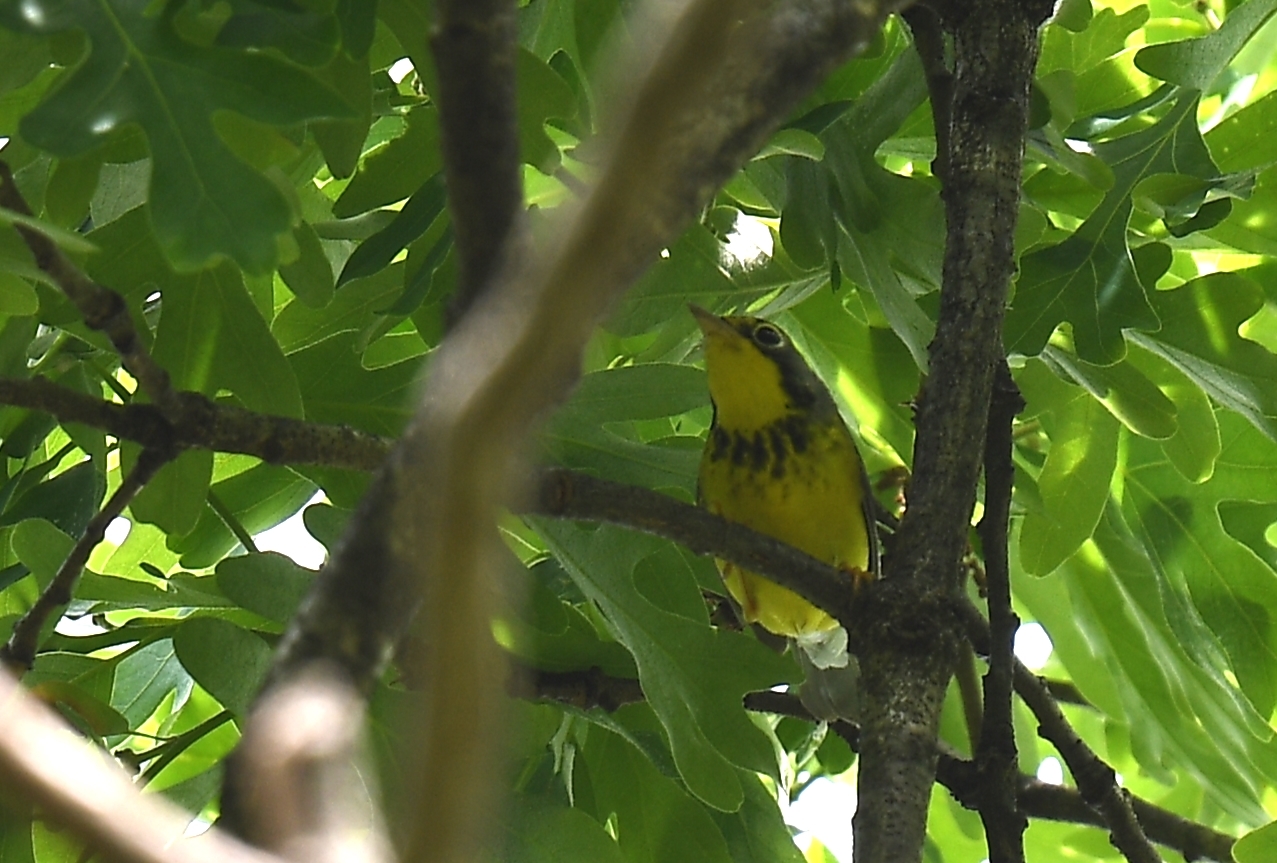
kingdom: Animalia
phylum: Chordata
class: Aves
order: Passeriformes
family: Parulidae
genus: Cardellina
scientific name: Cardellina canadensis
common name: Canada warbler
